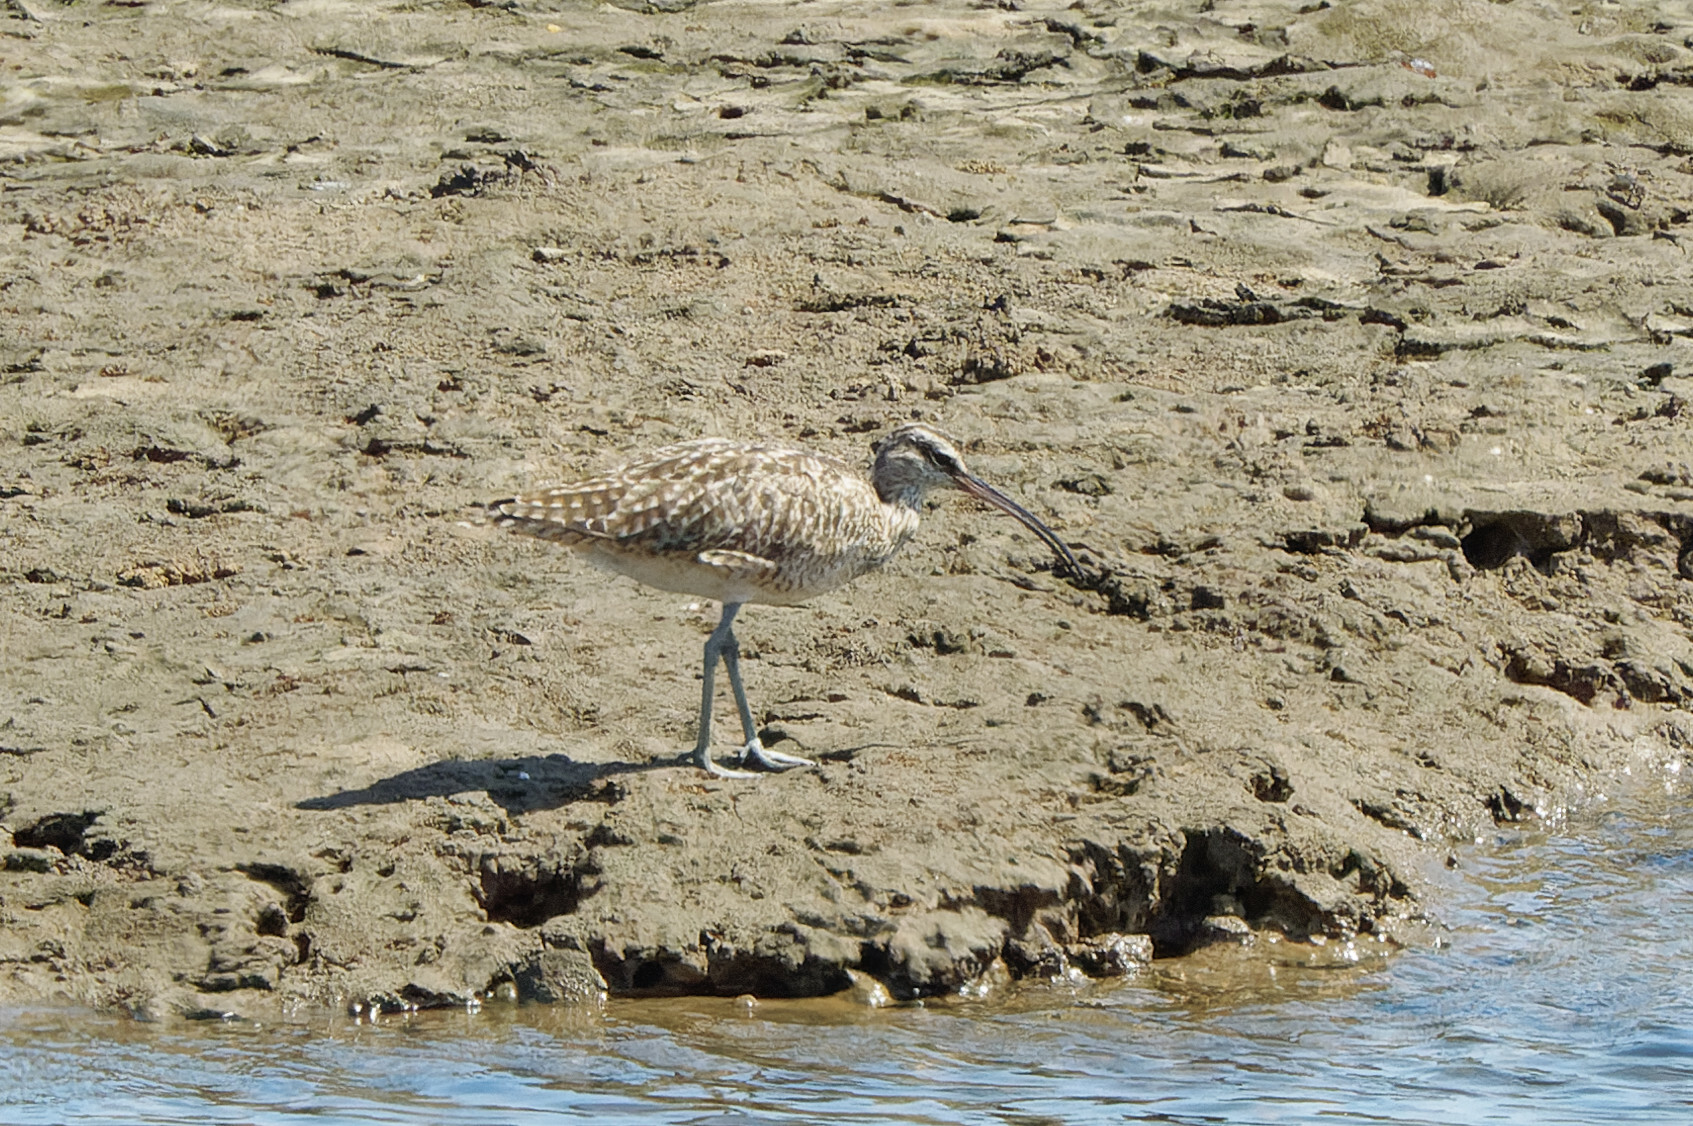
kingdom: Animalia
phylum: Chordata
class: Aves
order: Charadriiformes
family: Scolopacidae
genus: Numenius
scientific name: Numenius hudsonicus
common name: Hudsonian whimbrel
